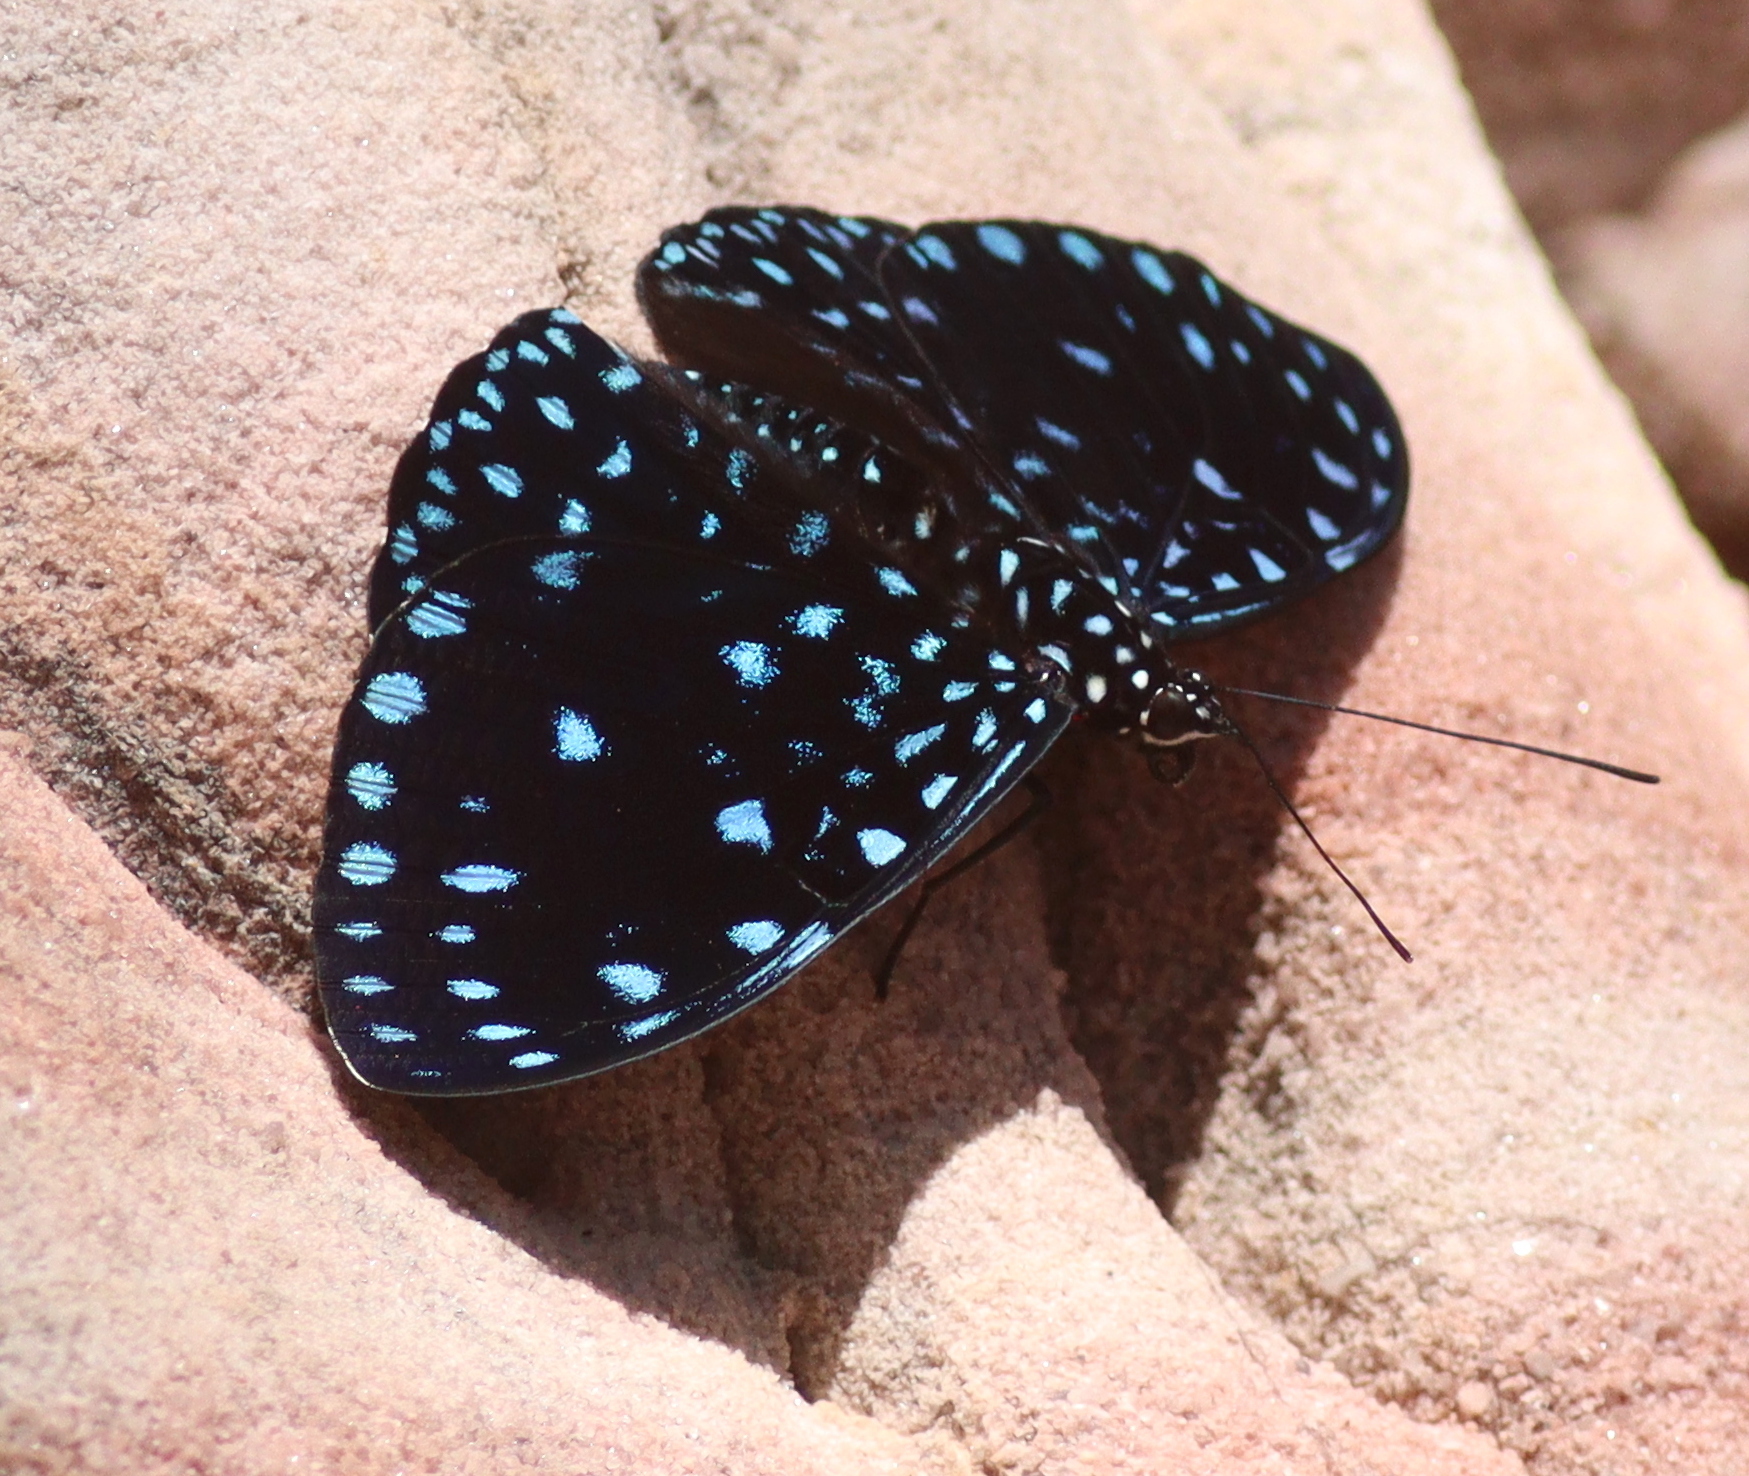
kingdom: Animalia
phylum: Arthropoda
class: Insecta
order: Lepidoptera
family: Nymphalidae
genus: Hamadryas
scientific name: Hamadryas laodamia
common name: Starry night cracker
